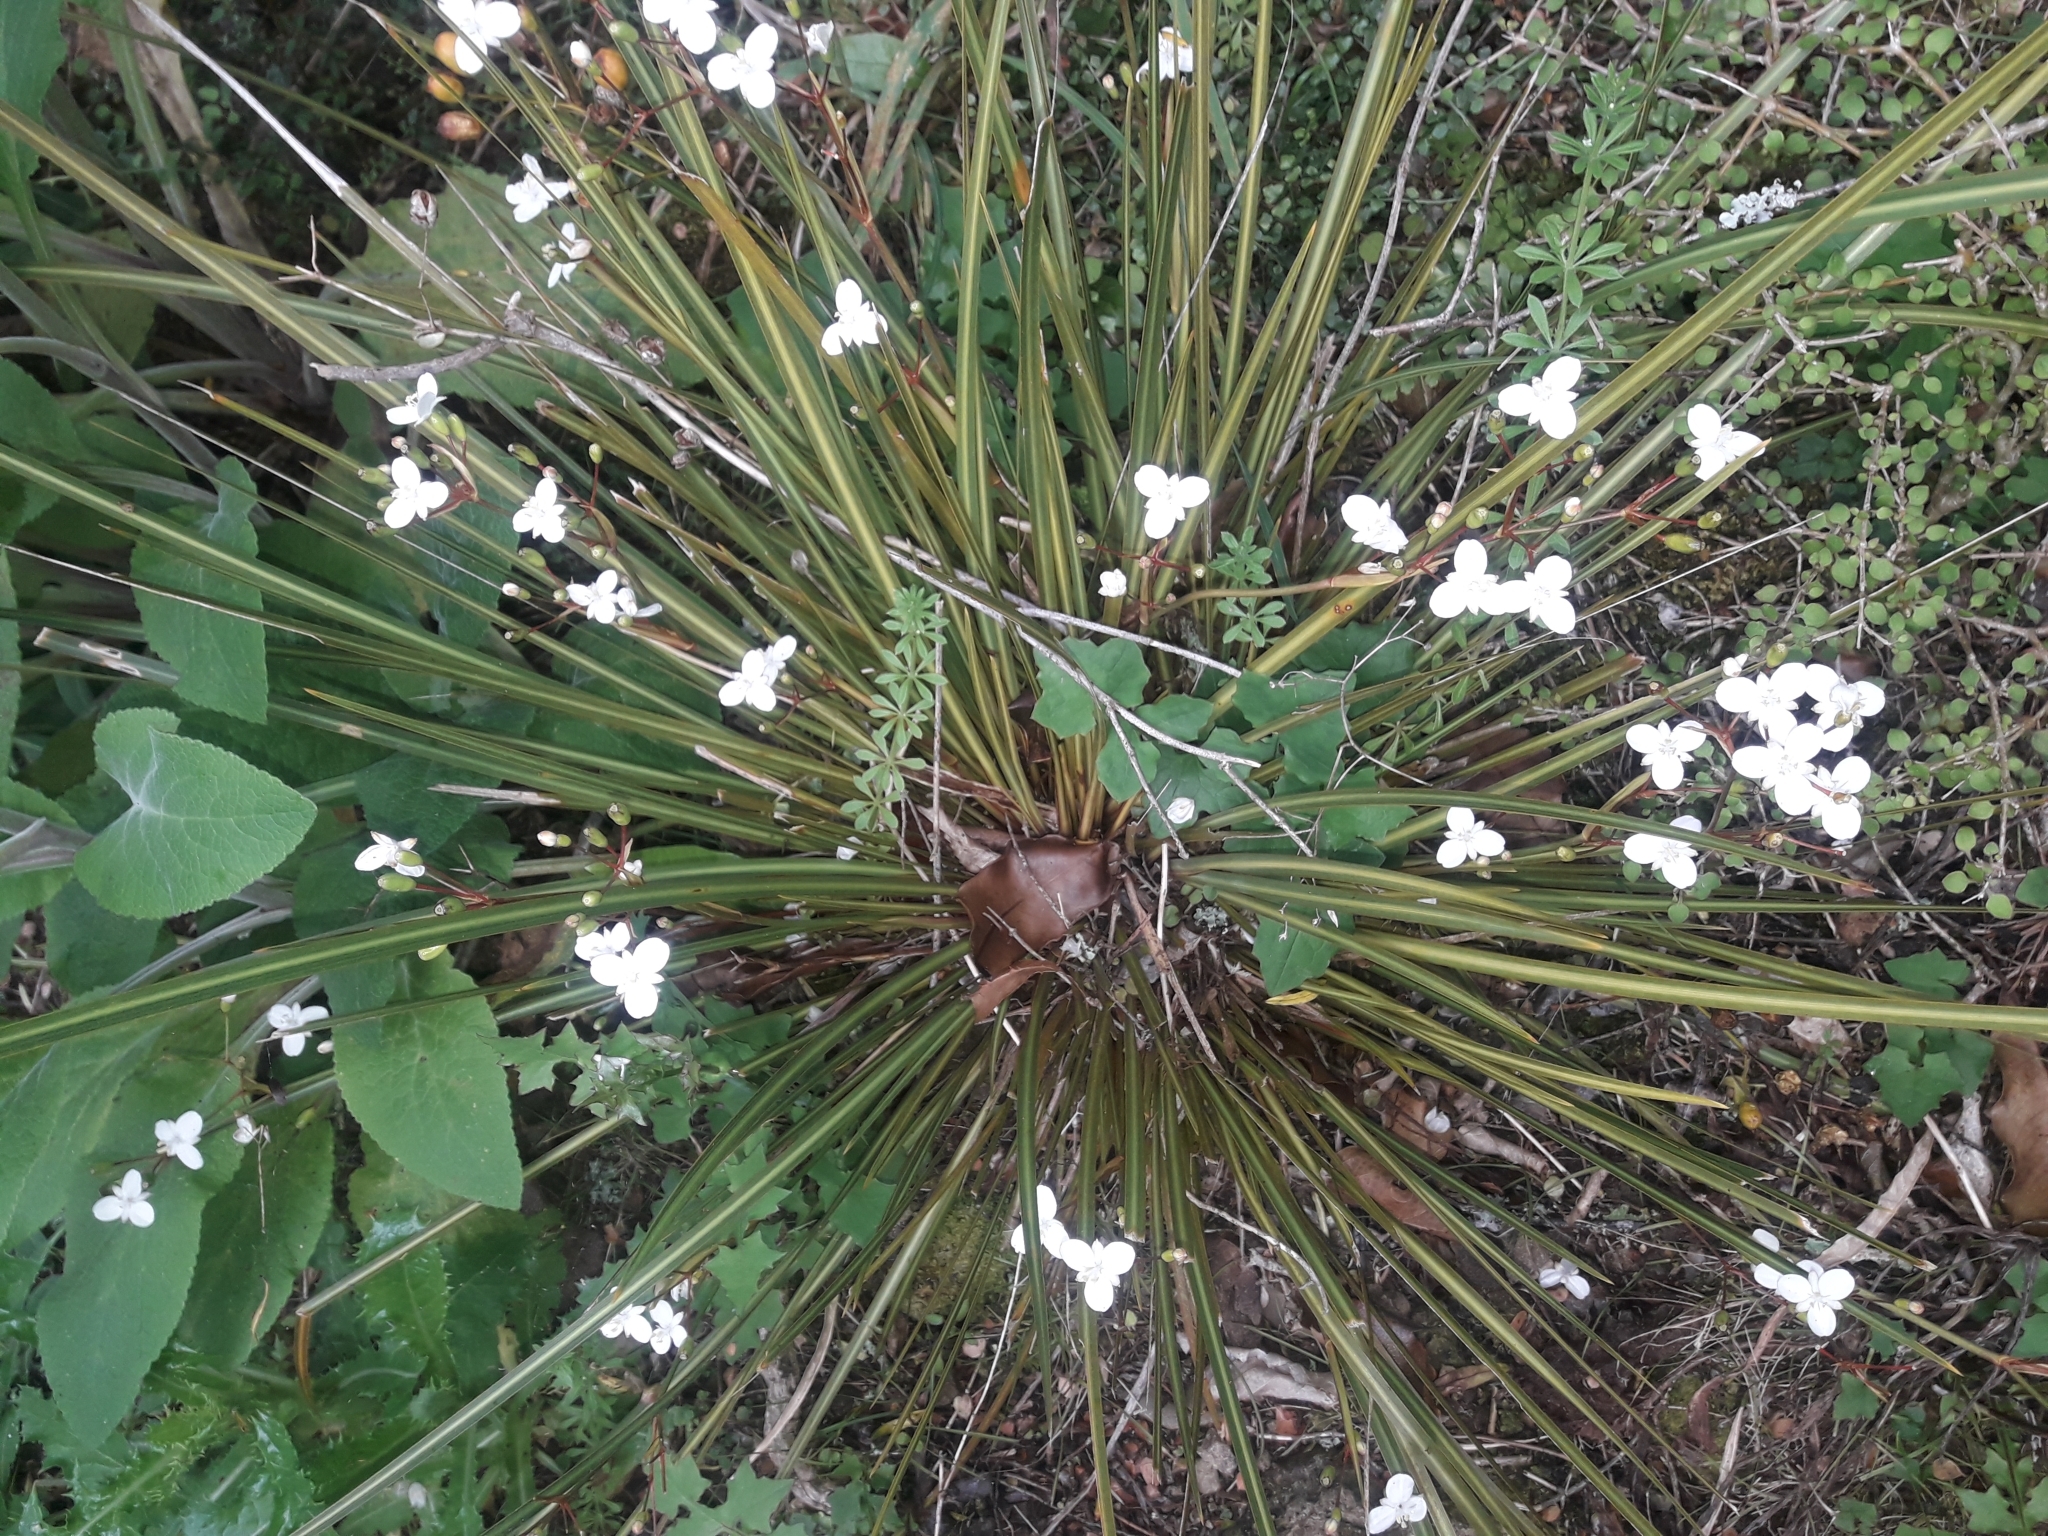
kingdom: Plantae
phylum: Tracheophyta
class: Liliopsida
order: Asparagales
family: Iridaceae
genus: Libertia
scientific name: Libertia ixioides
